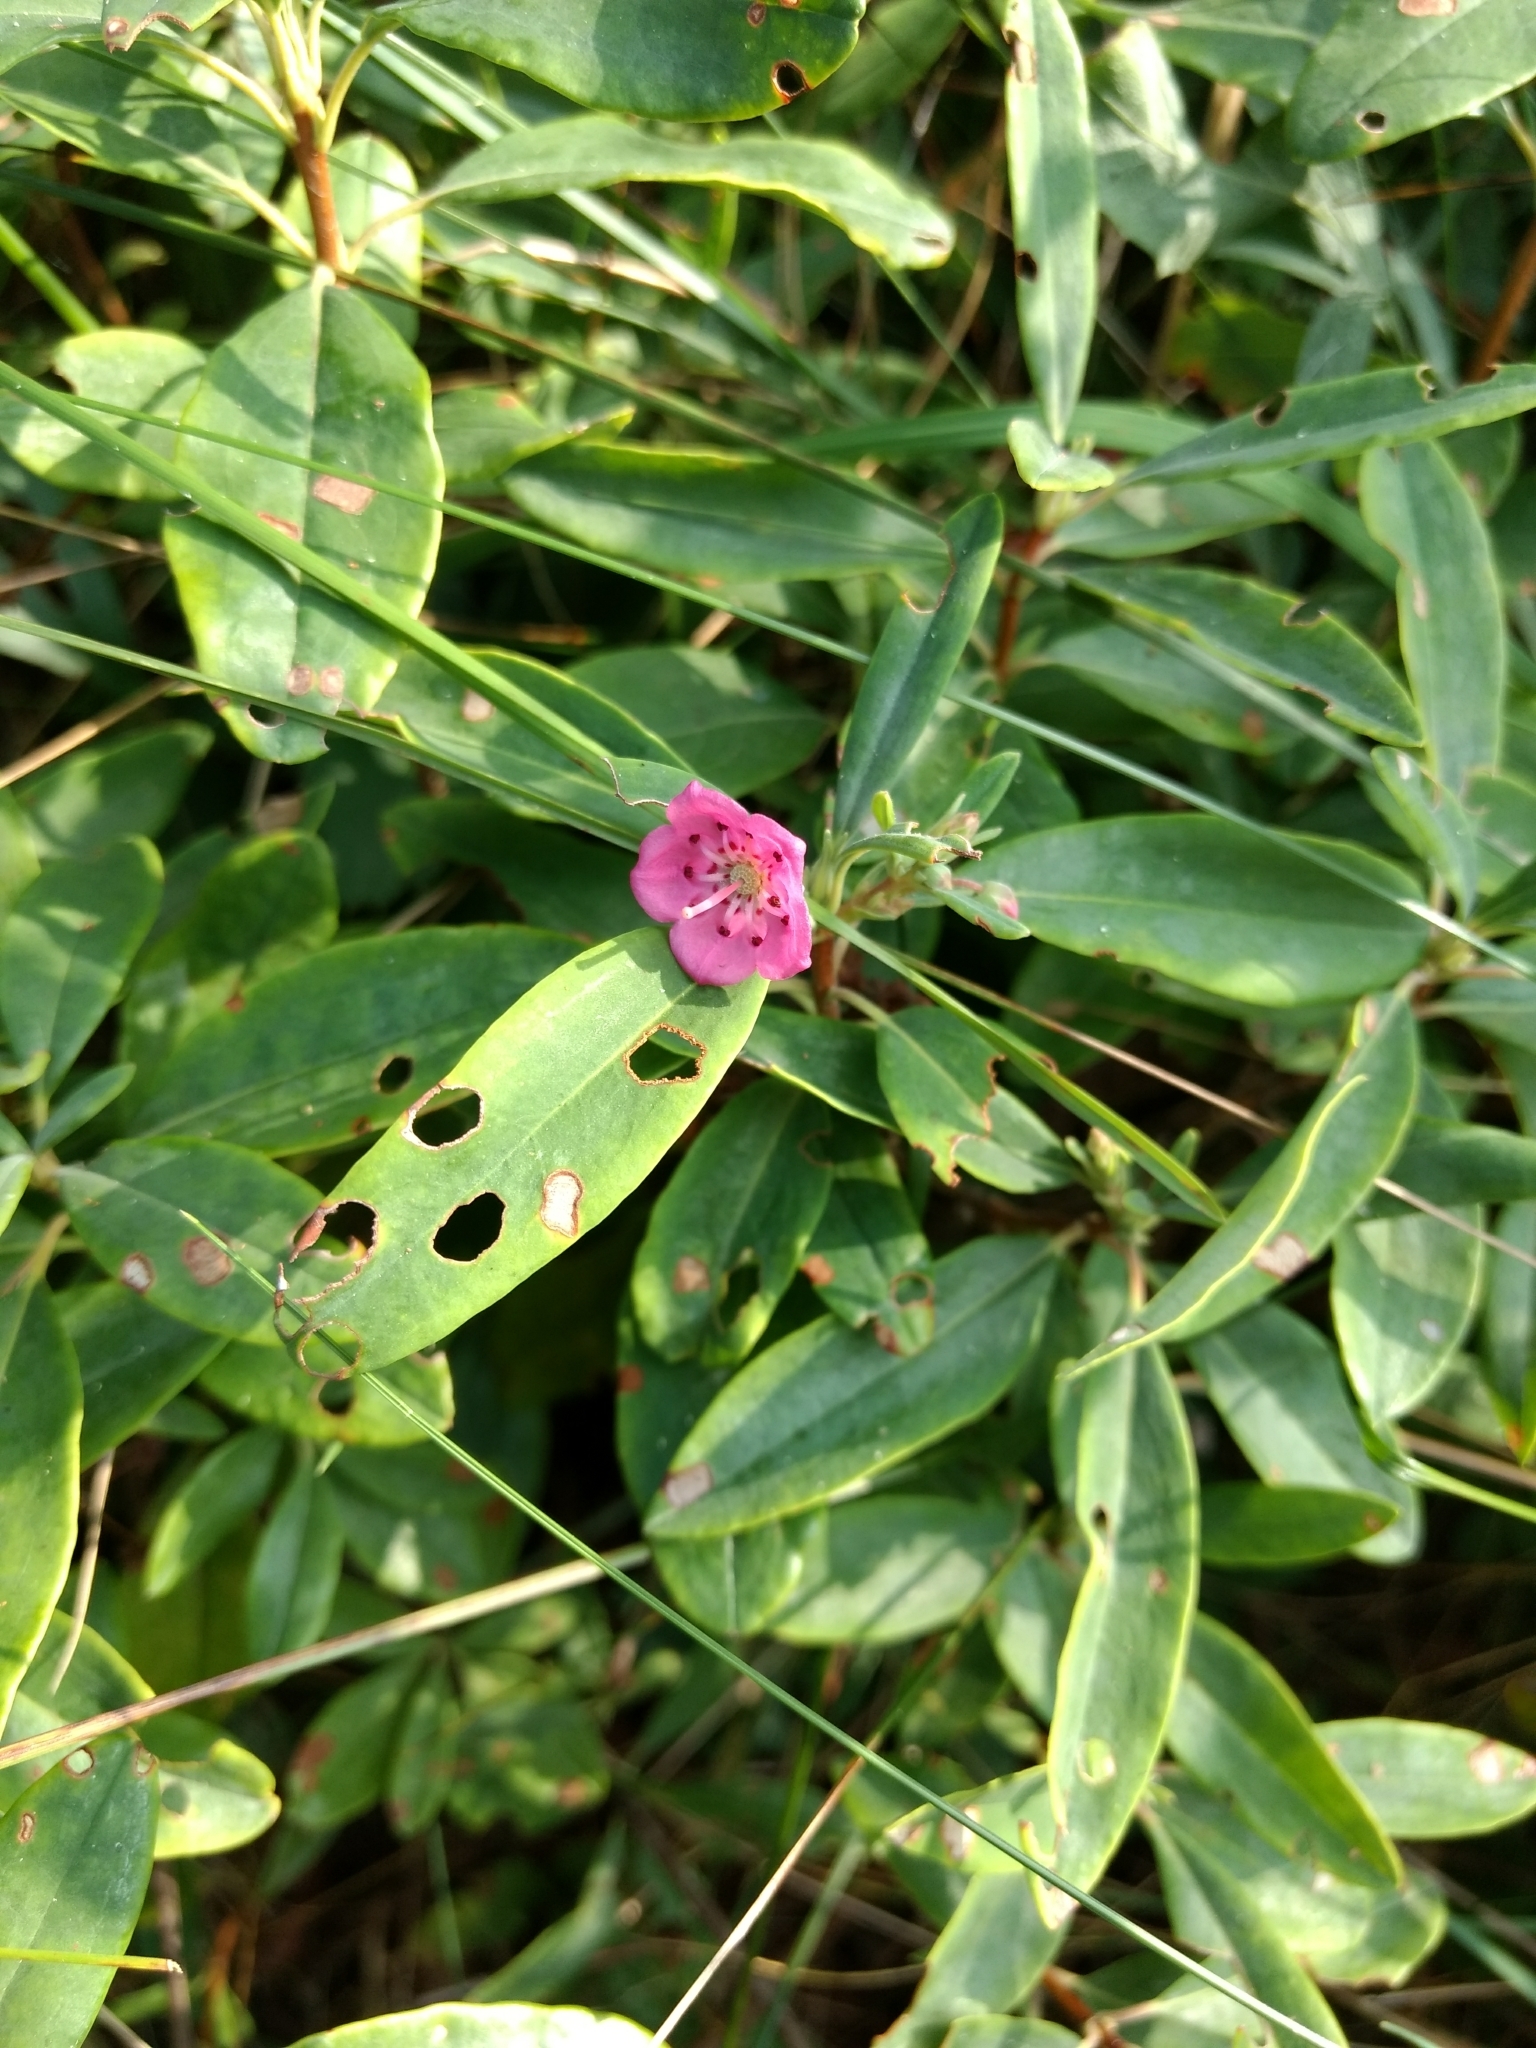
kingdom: Plantae
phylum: Tracheophyta
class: Magnoliopsida
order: Ericales
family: Ericaceae
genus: Kalmia
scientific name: Kalmia angustifolia
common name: Sheep-laurel
